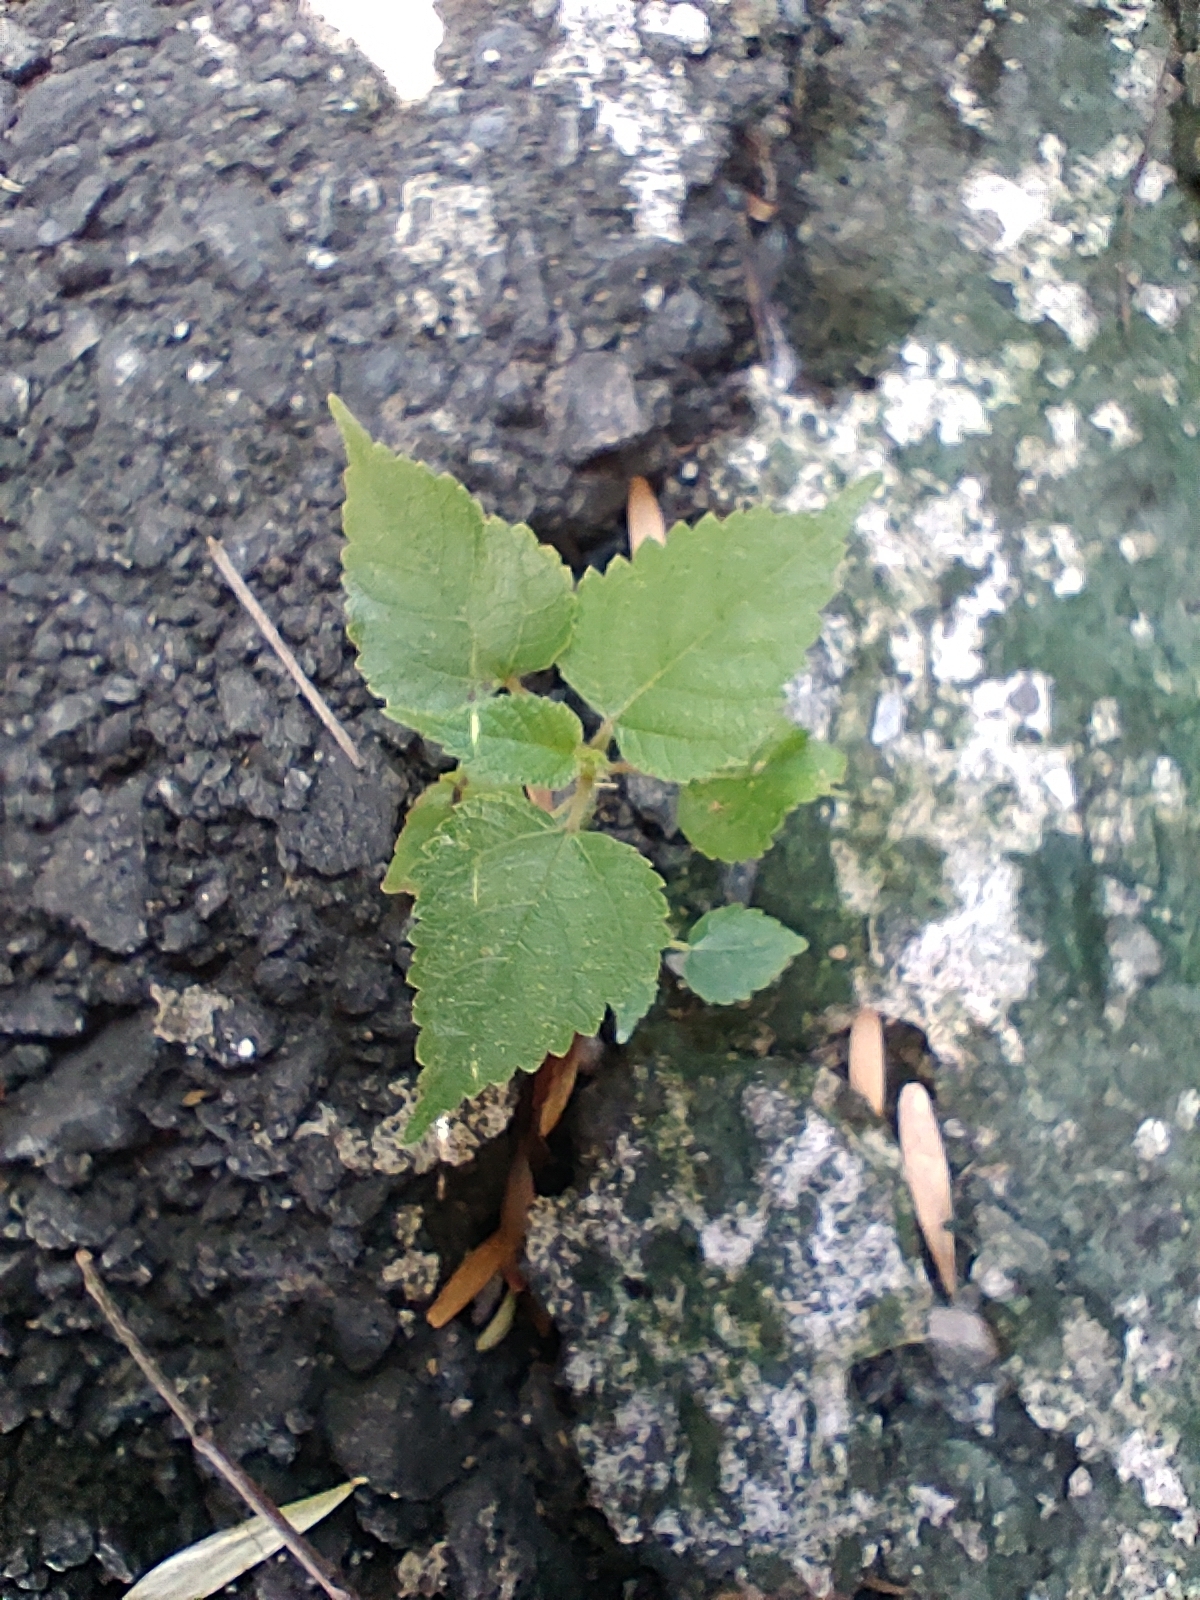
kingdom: Plantae
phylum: Tracheophyta
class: Magnoliopsida
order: Rosales
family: Moraceae
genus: Broussonetia
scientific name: Broussonetia papyrifera
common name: Paper mulberry
